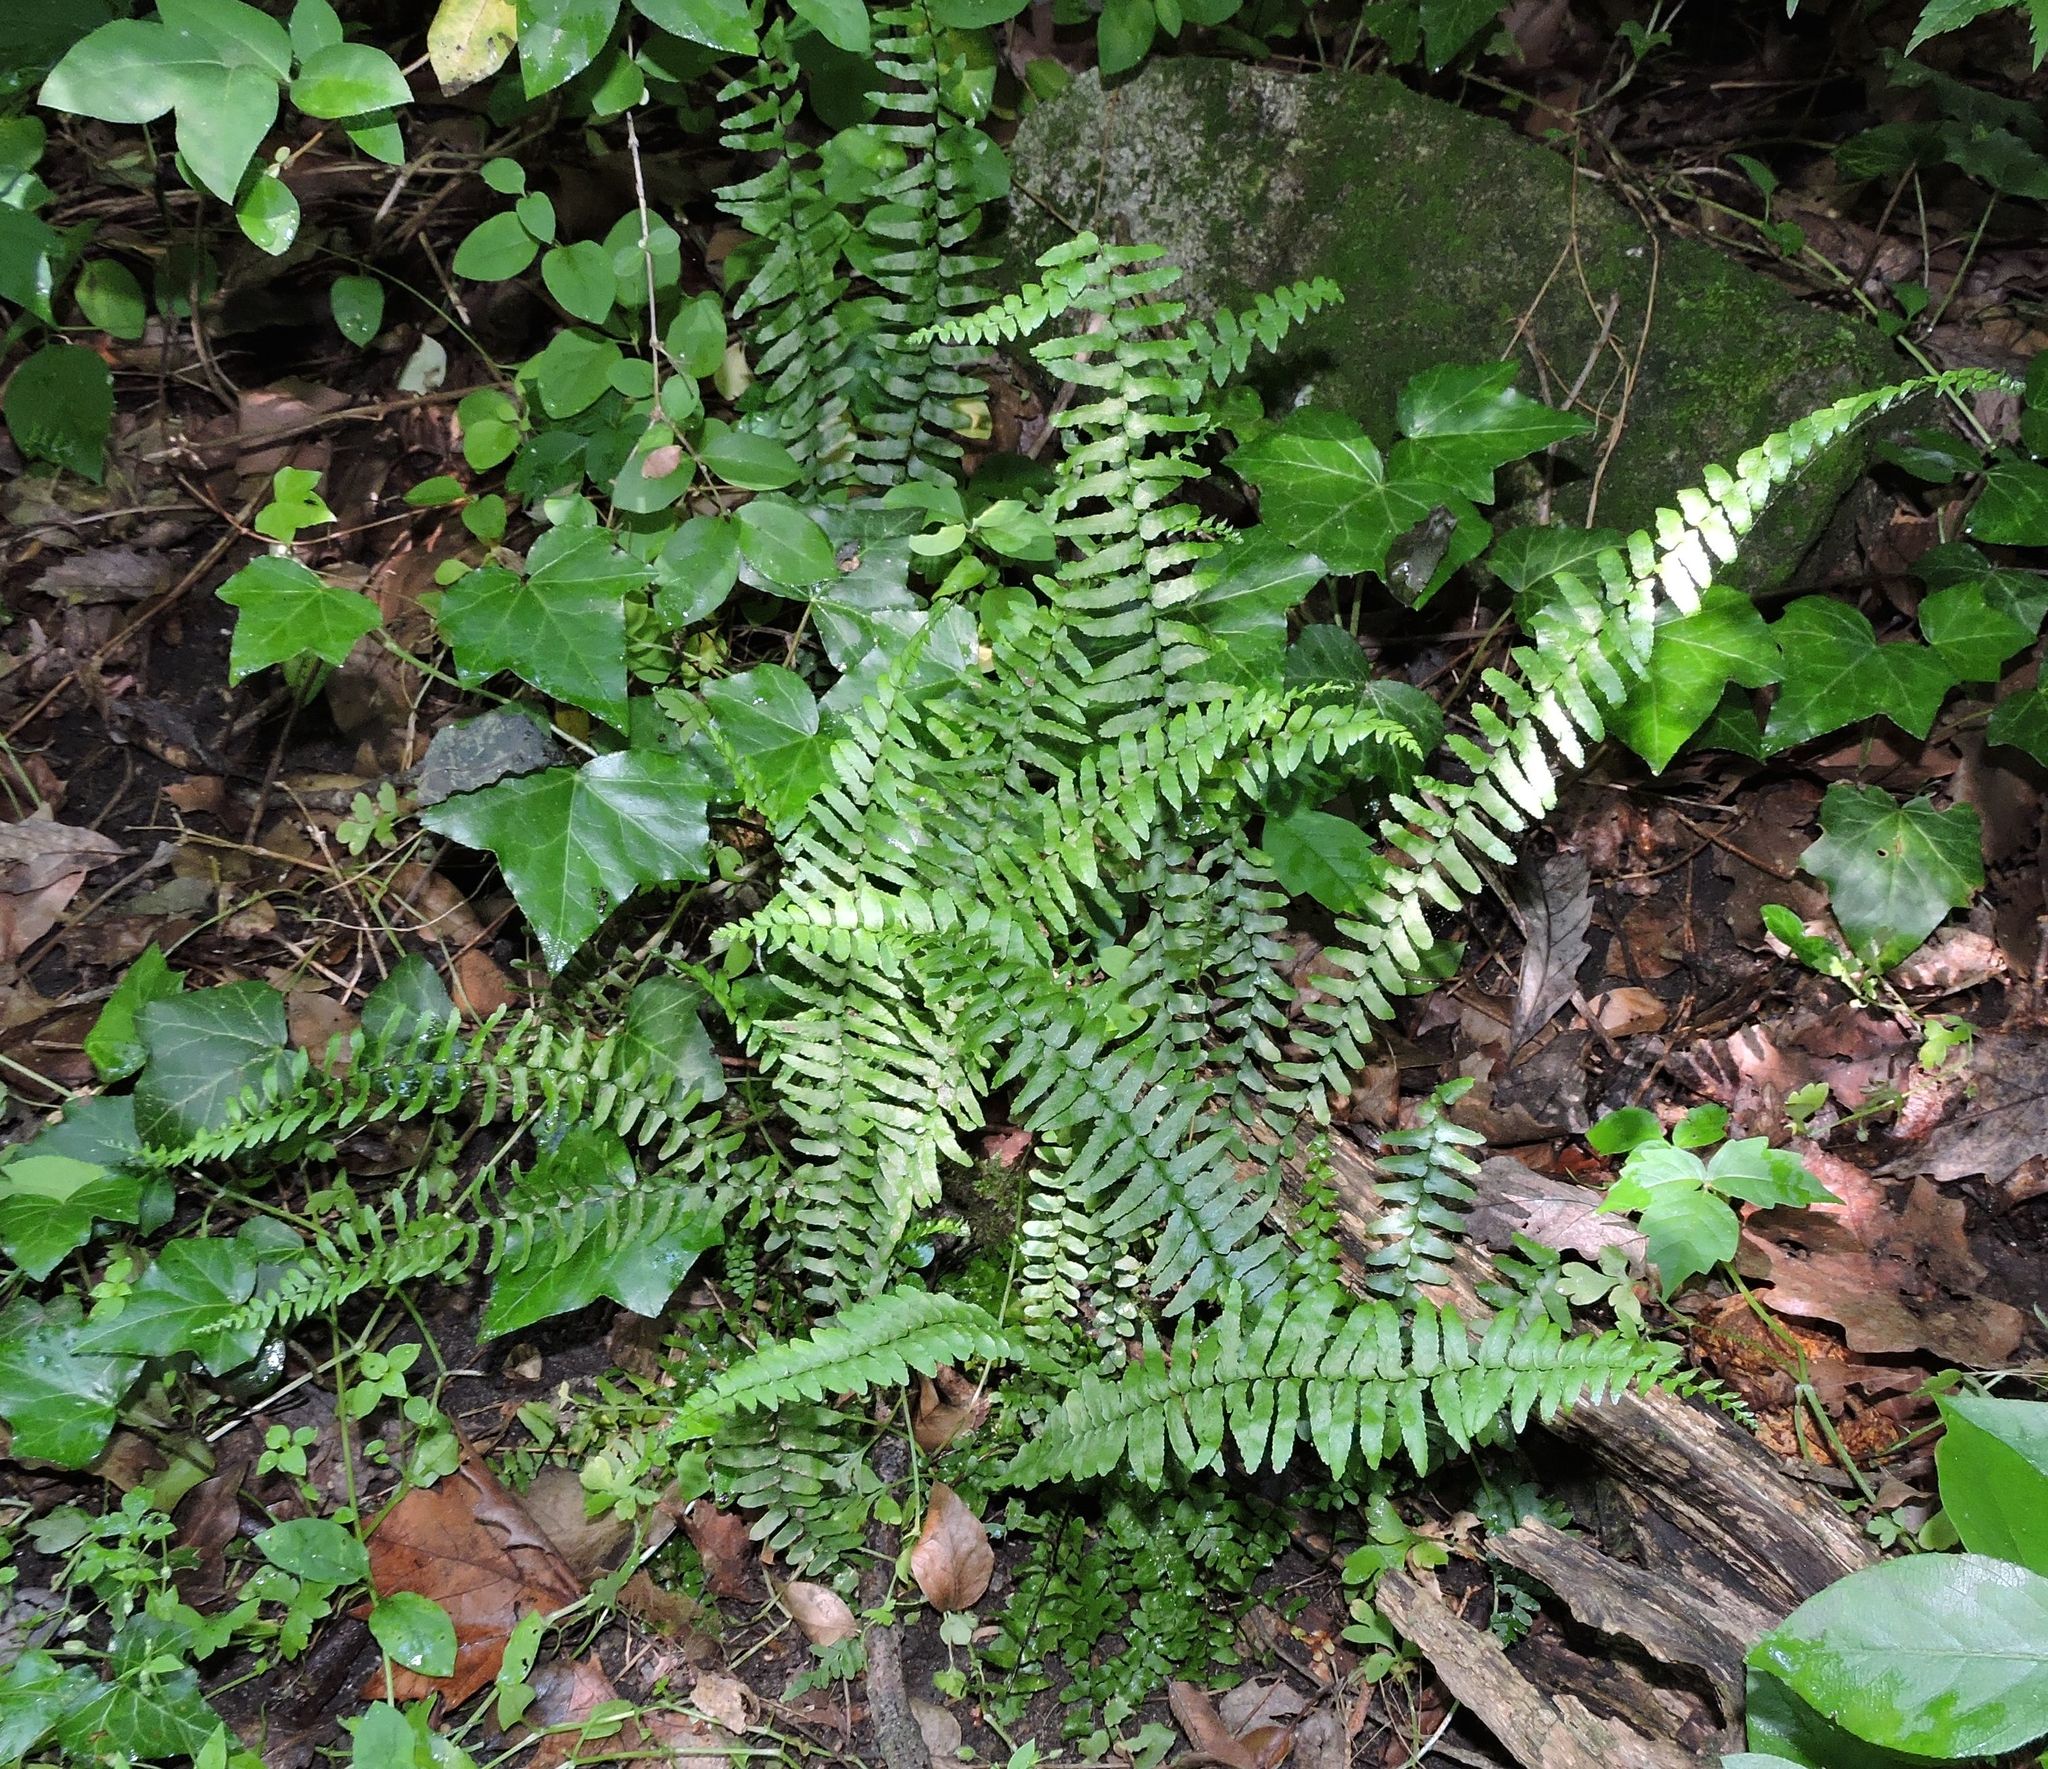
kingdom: Plantae
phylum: Tracheophyta
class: Polypodiopsida
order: Polypodiales
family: Aspleniaceae
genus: Asplenium
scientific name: Asplenium platyneuron
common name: Ebony spleenwort
